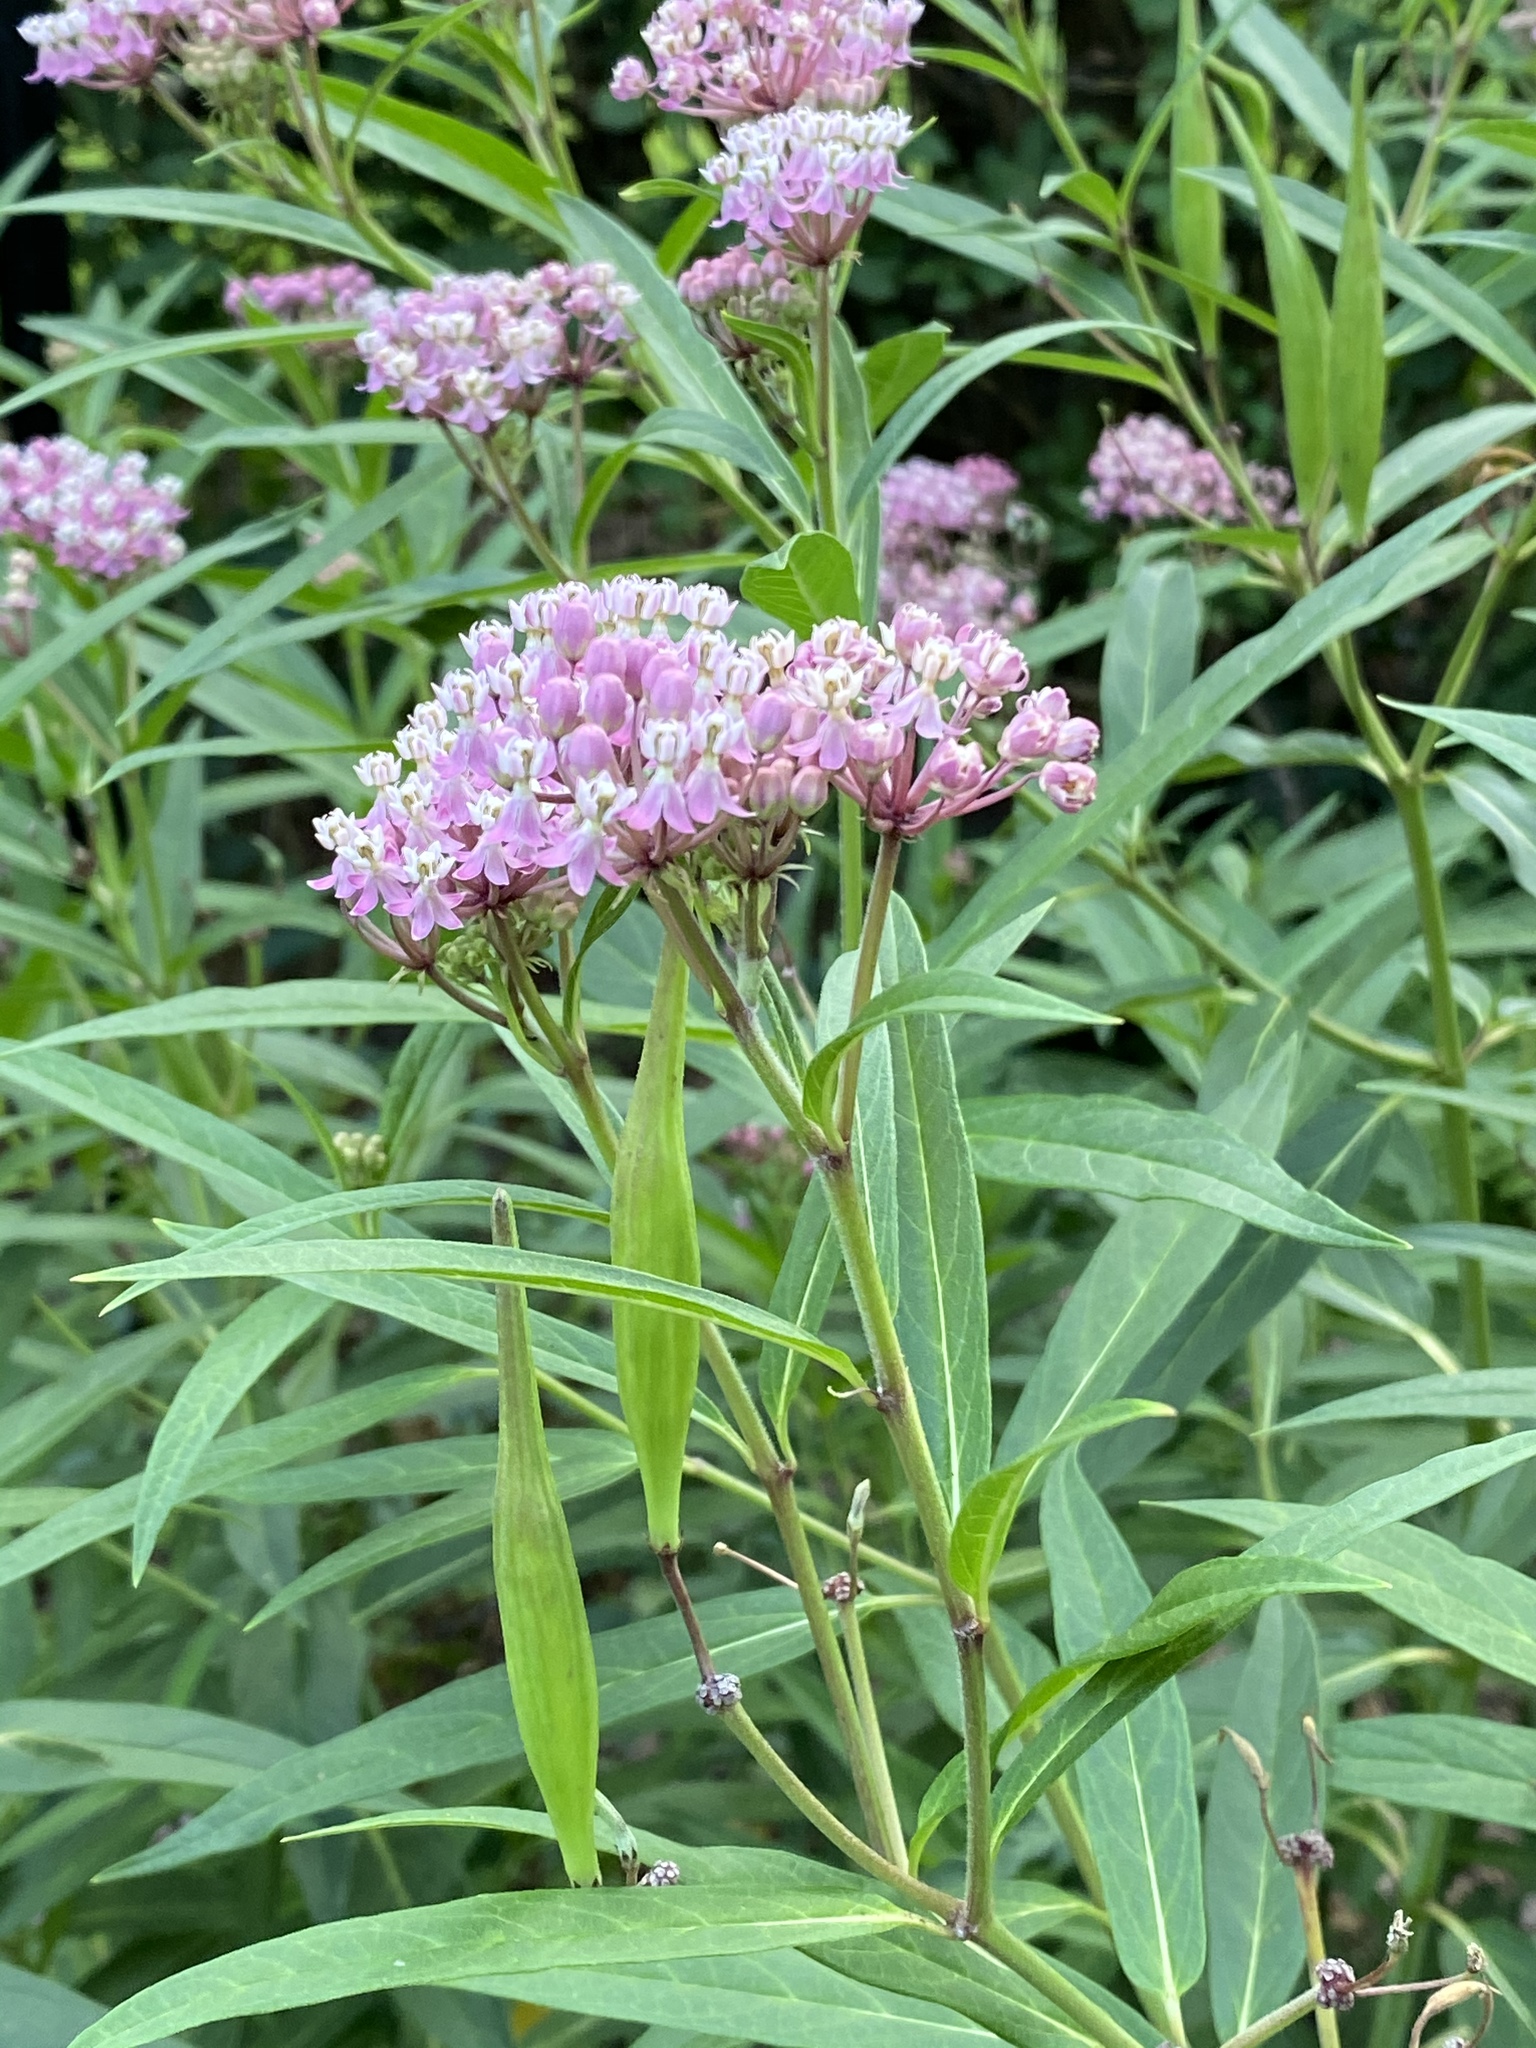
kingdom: Plantae
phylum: Tracheophyta
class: Magnoliopsida
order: Gentianales
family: Apocynaceae
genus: Asclepias
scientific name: Asclepias incarnata
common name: Swamp milkweed
